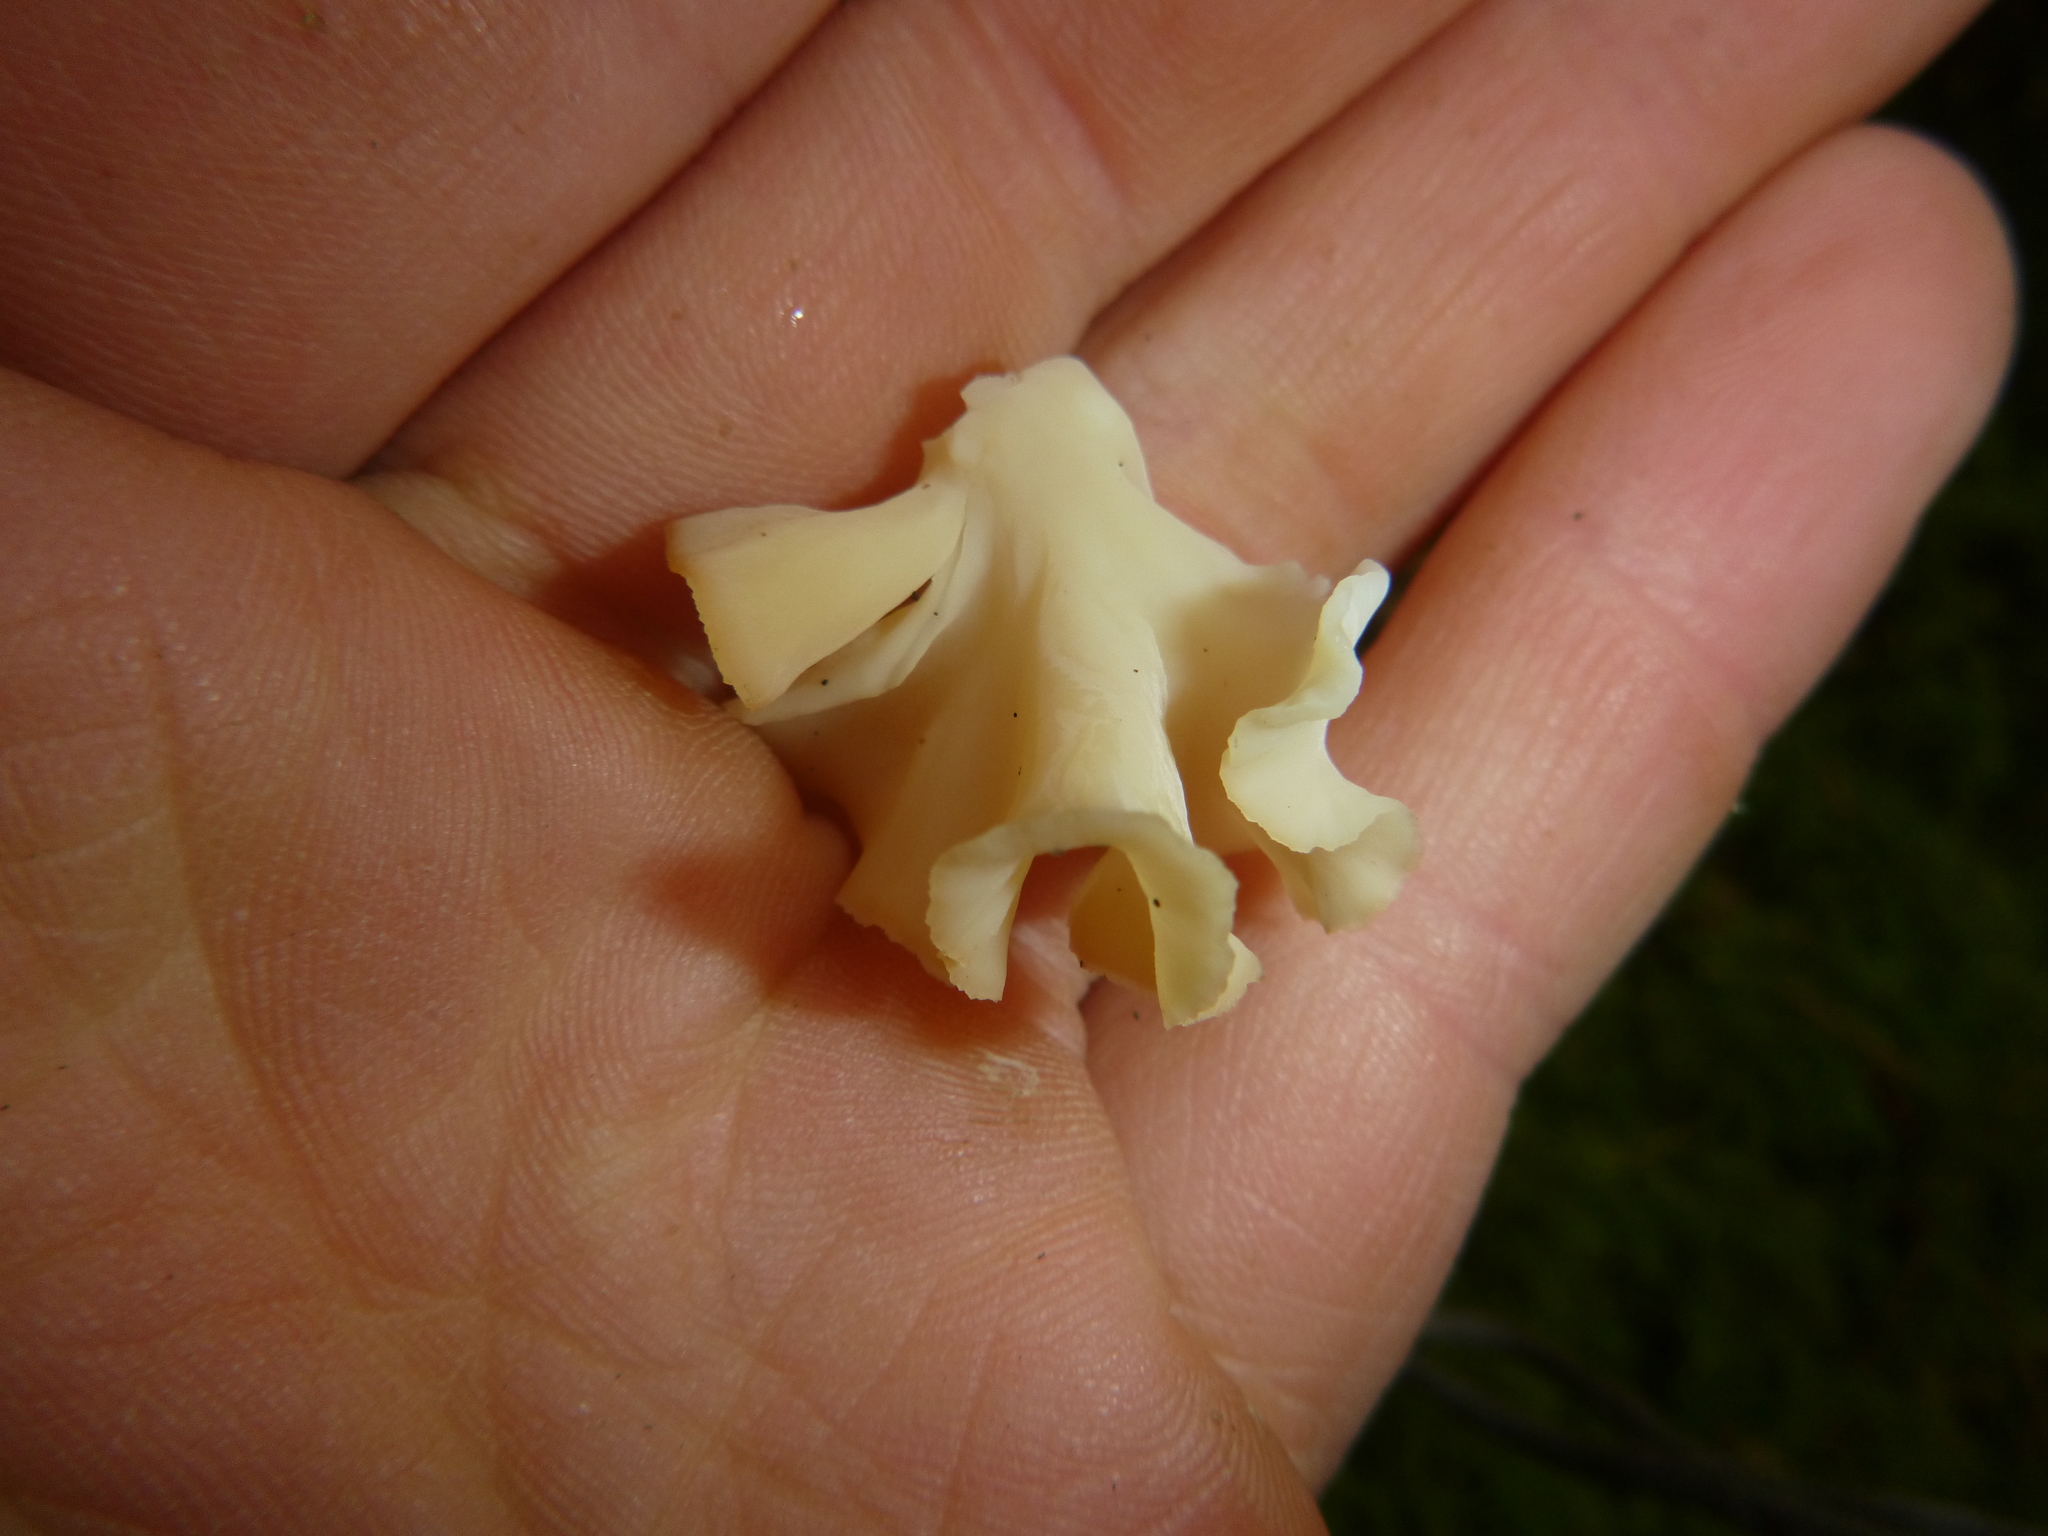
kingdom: Fungi
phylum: Basidiomycota
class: Agaricomycetes
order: Polyporales
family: Sparassidaceae
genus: Sparassis
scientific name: Sparassis crispa
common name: Brain fungus
